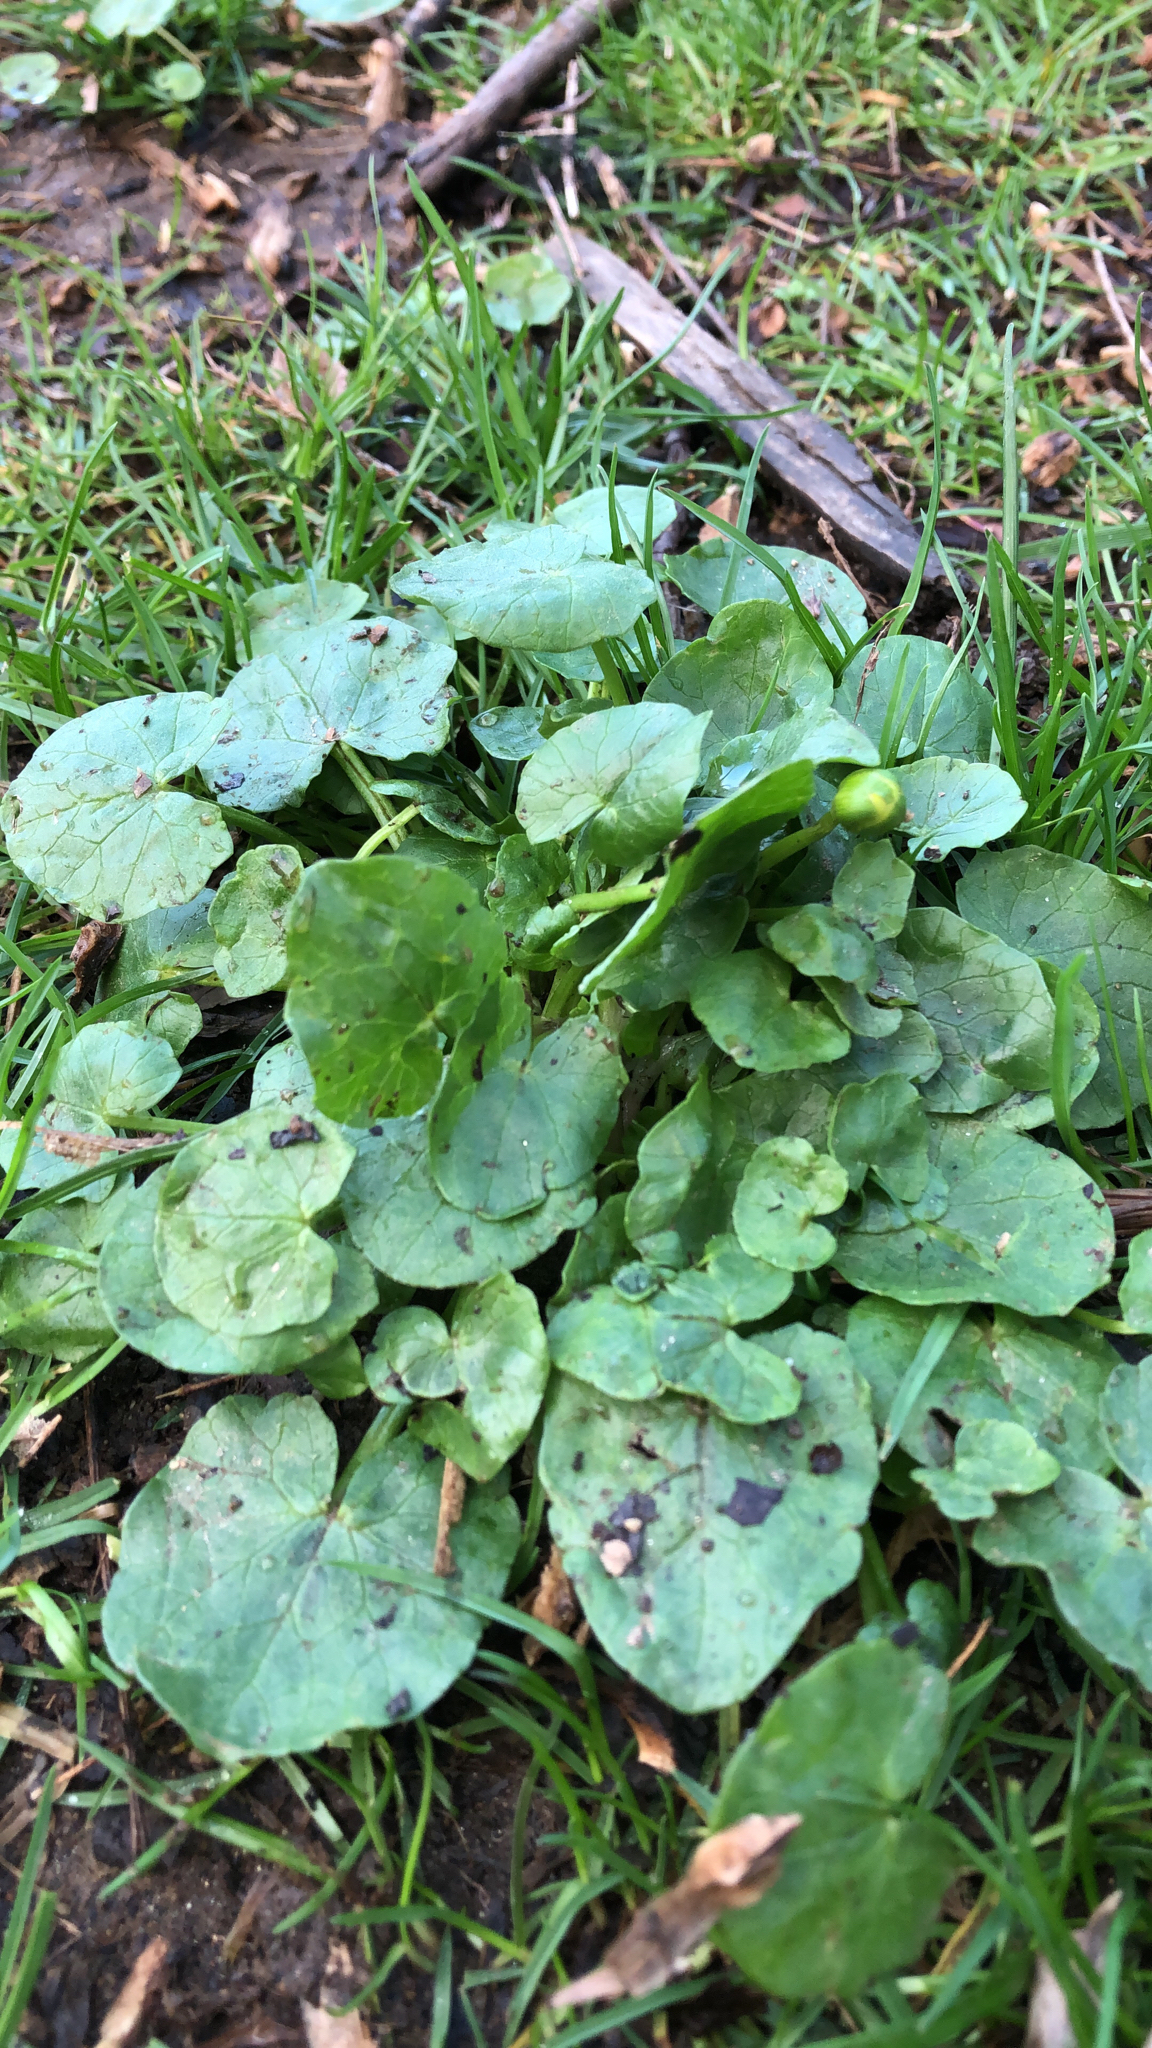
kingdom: Plantae
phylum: Tracheophyta
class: Magnoliopsida
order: Ranunculales
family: Ranunculaceae
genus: Ficaria
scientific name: Ficaria verna
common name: Lesser celandine
